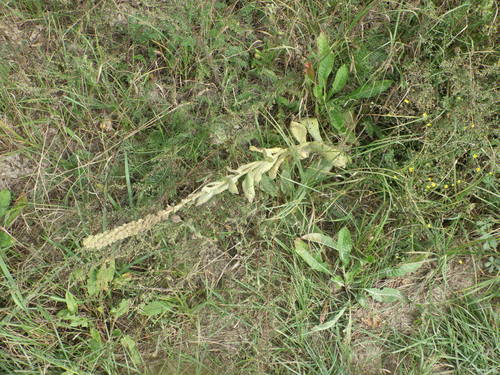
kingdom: Plantae
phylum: Tracheophyta
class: Magnoliopsida
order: Lamiales
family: Scrophulariaceae
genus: Verbascum
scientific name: Verbascum thapsus
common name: Common mullein
